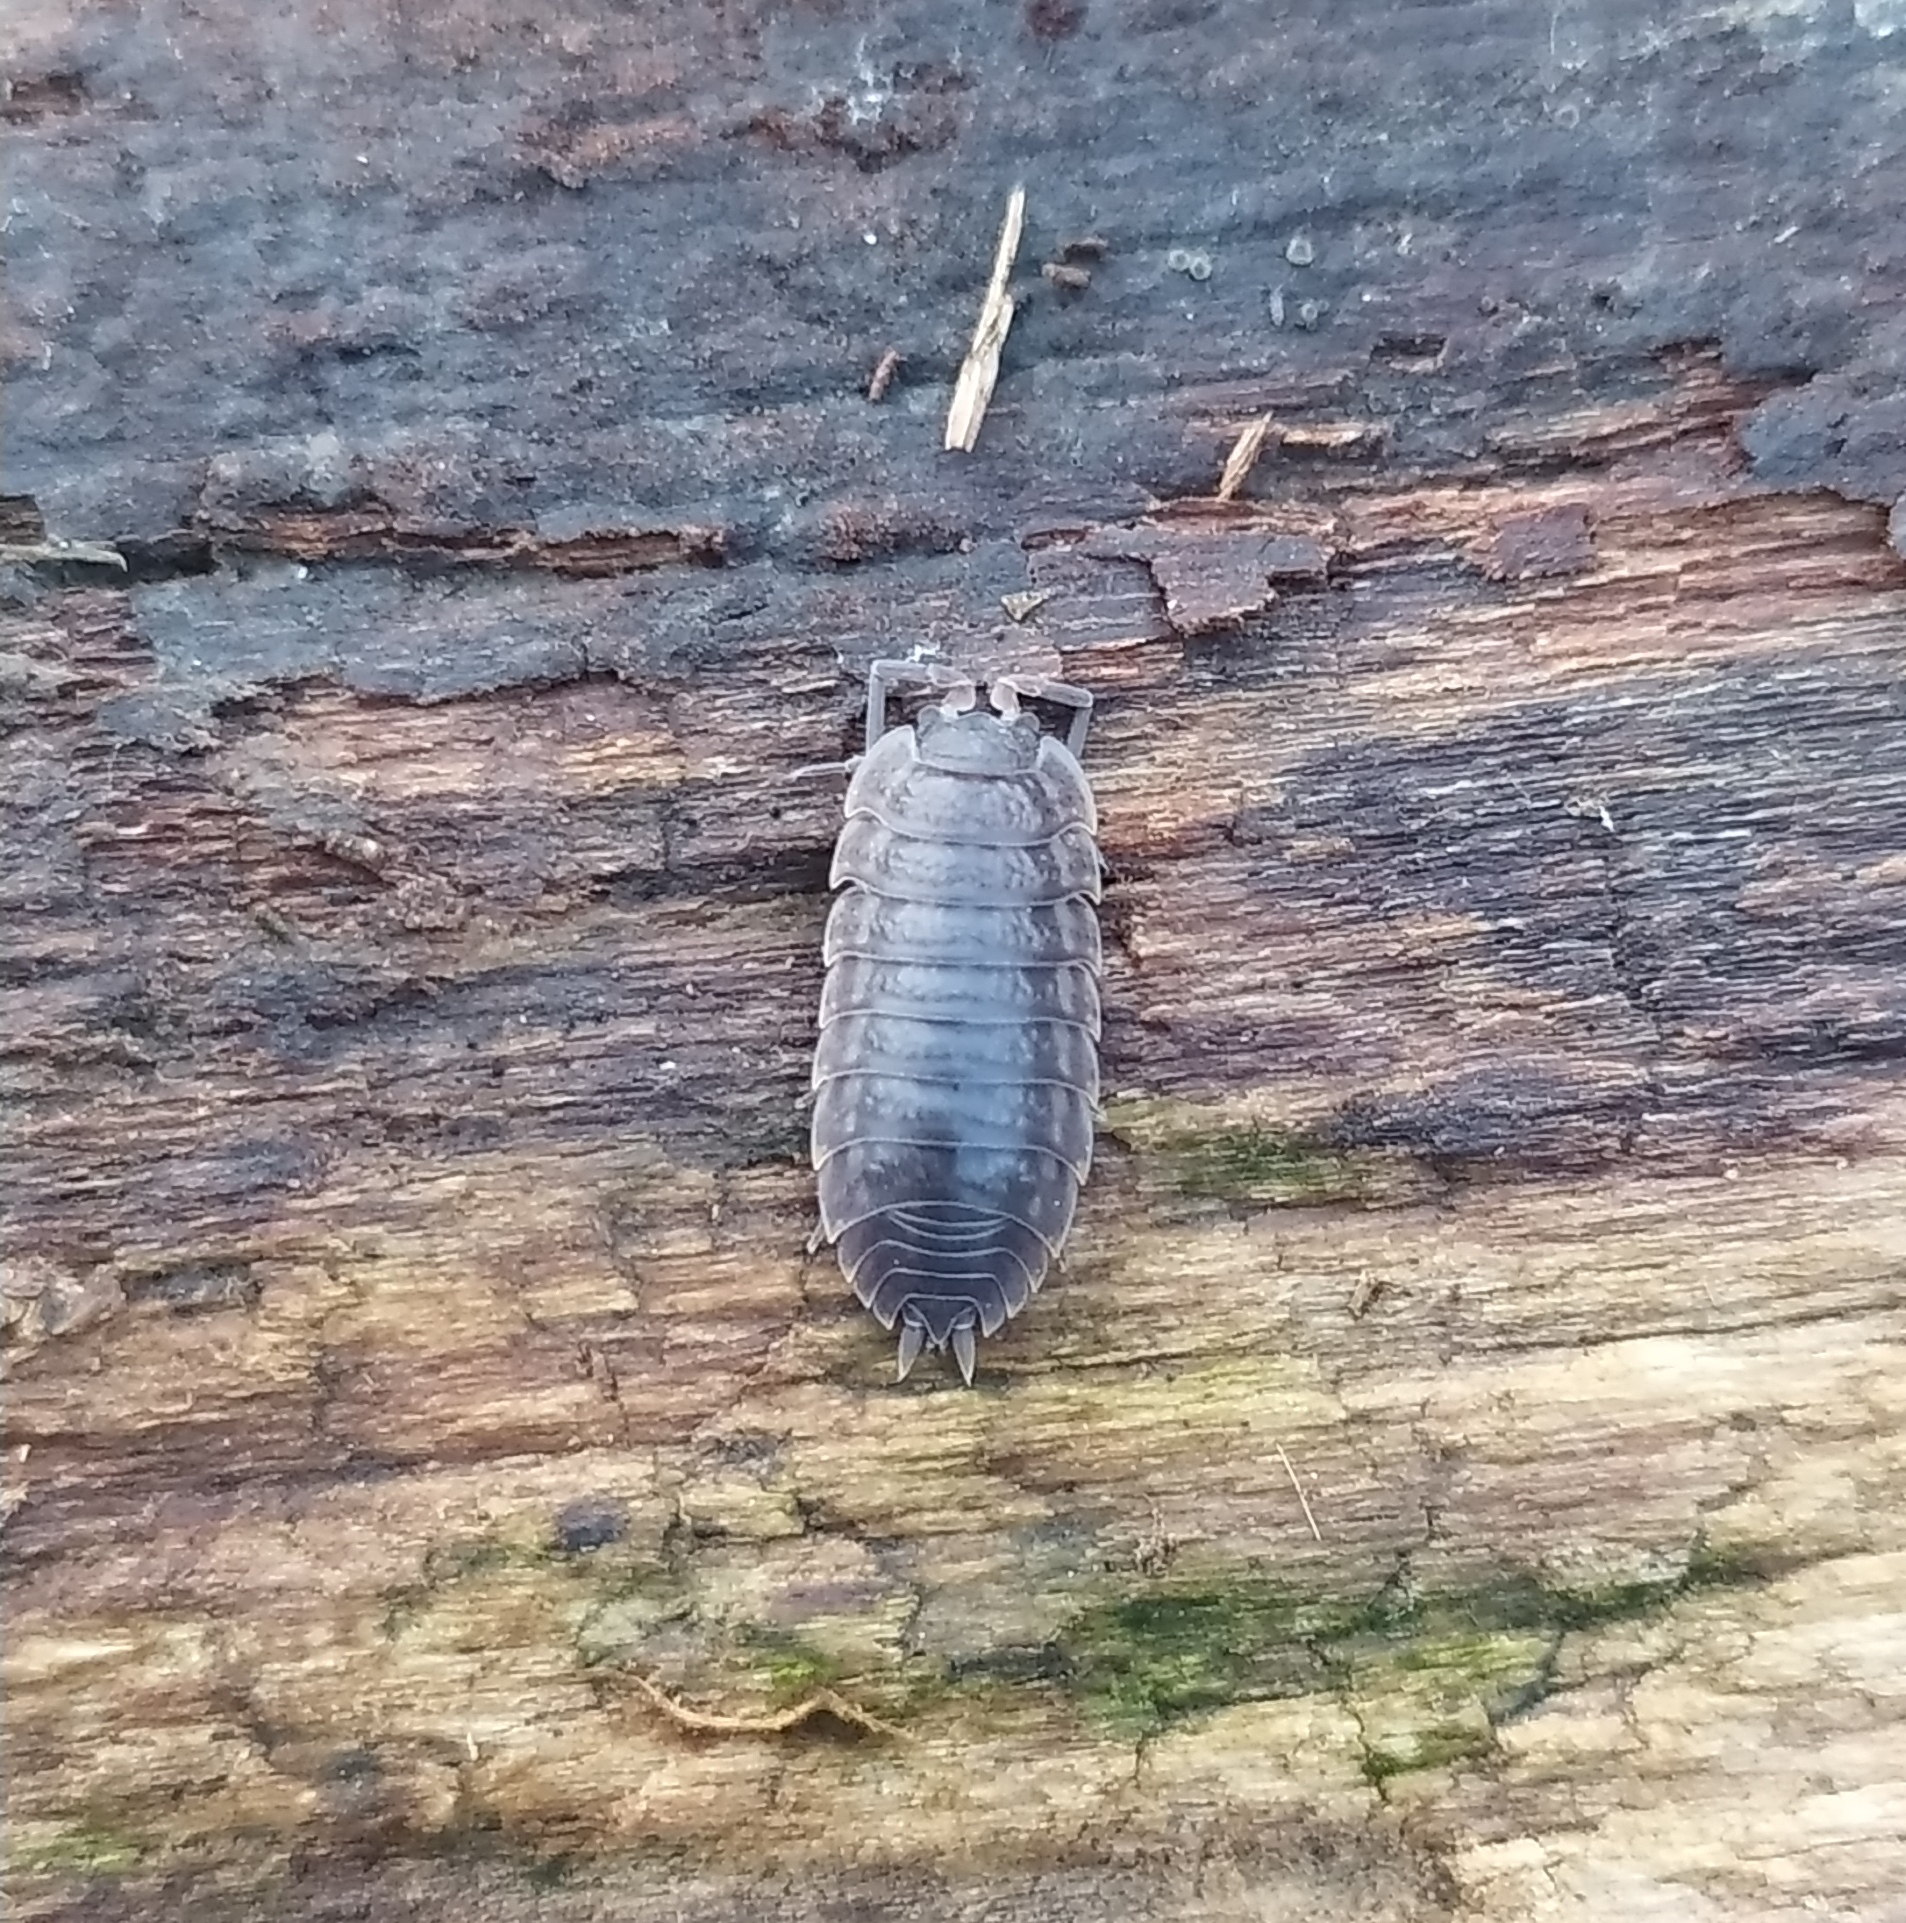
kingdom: Animalia
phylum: Arthropoda
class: Malacostraca
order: Isopoda
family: Trachelipodidae
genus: Trachelipus
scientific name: Trachelipus rathkii
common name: Isopod
